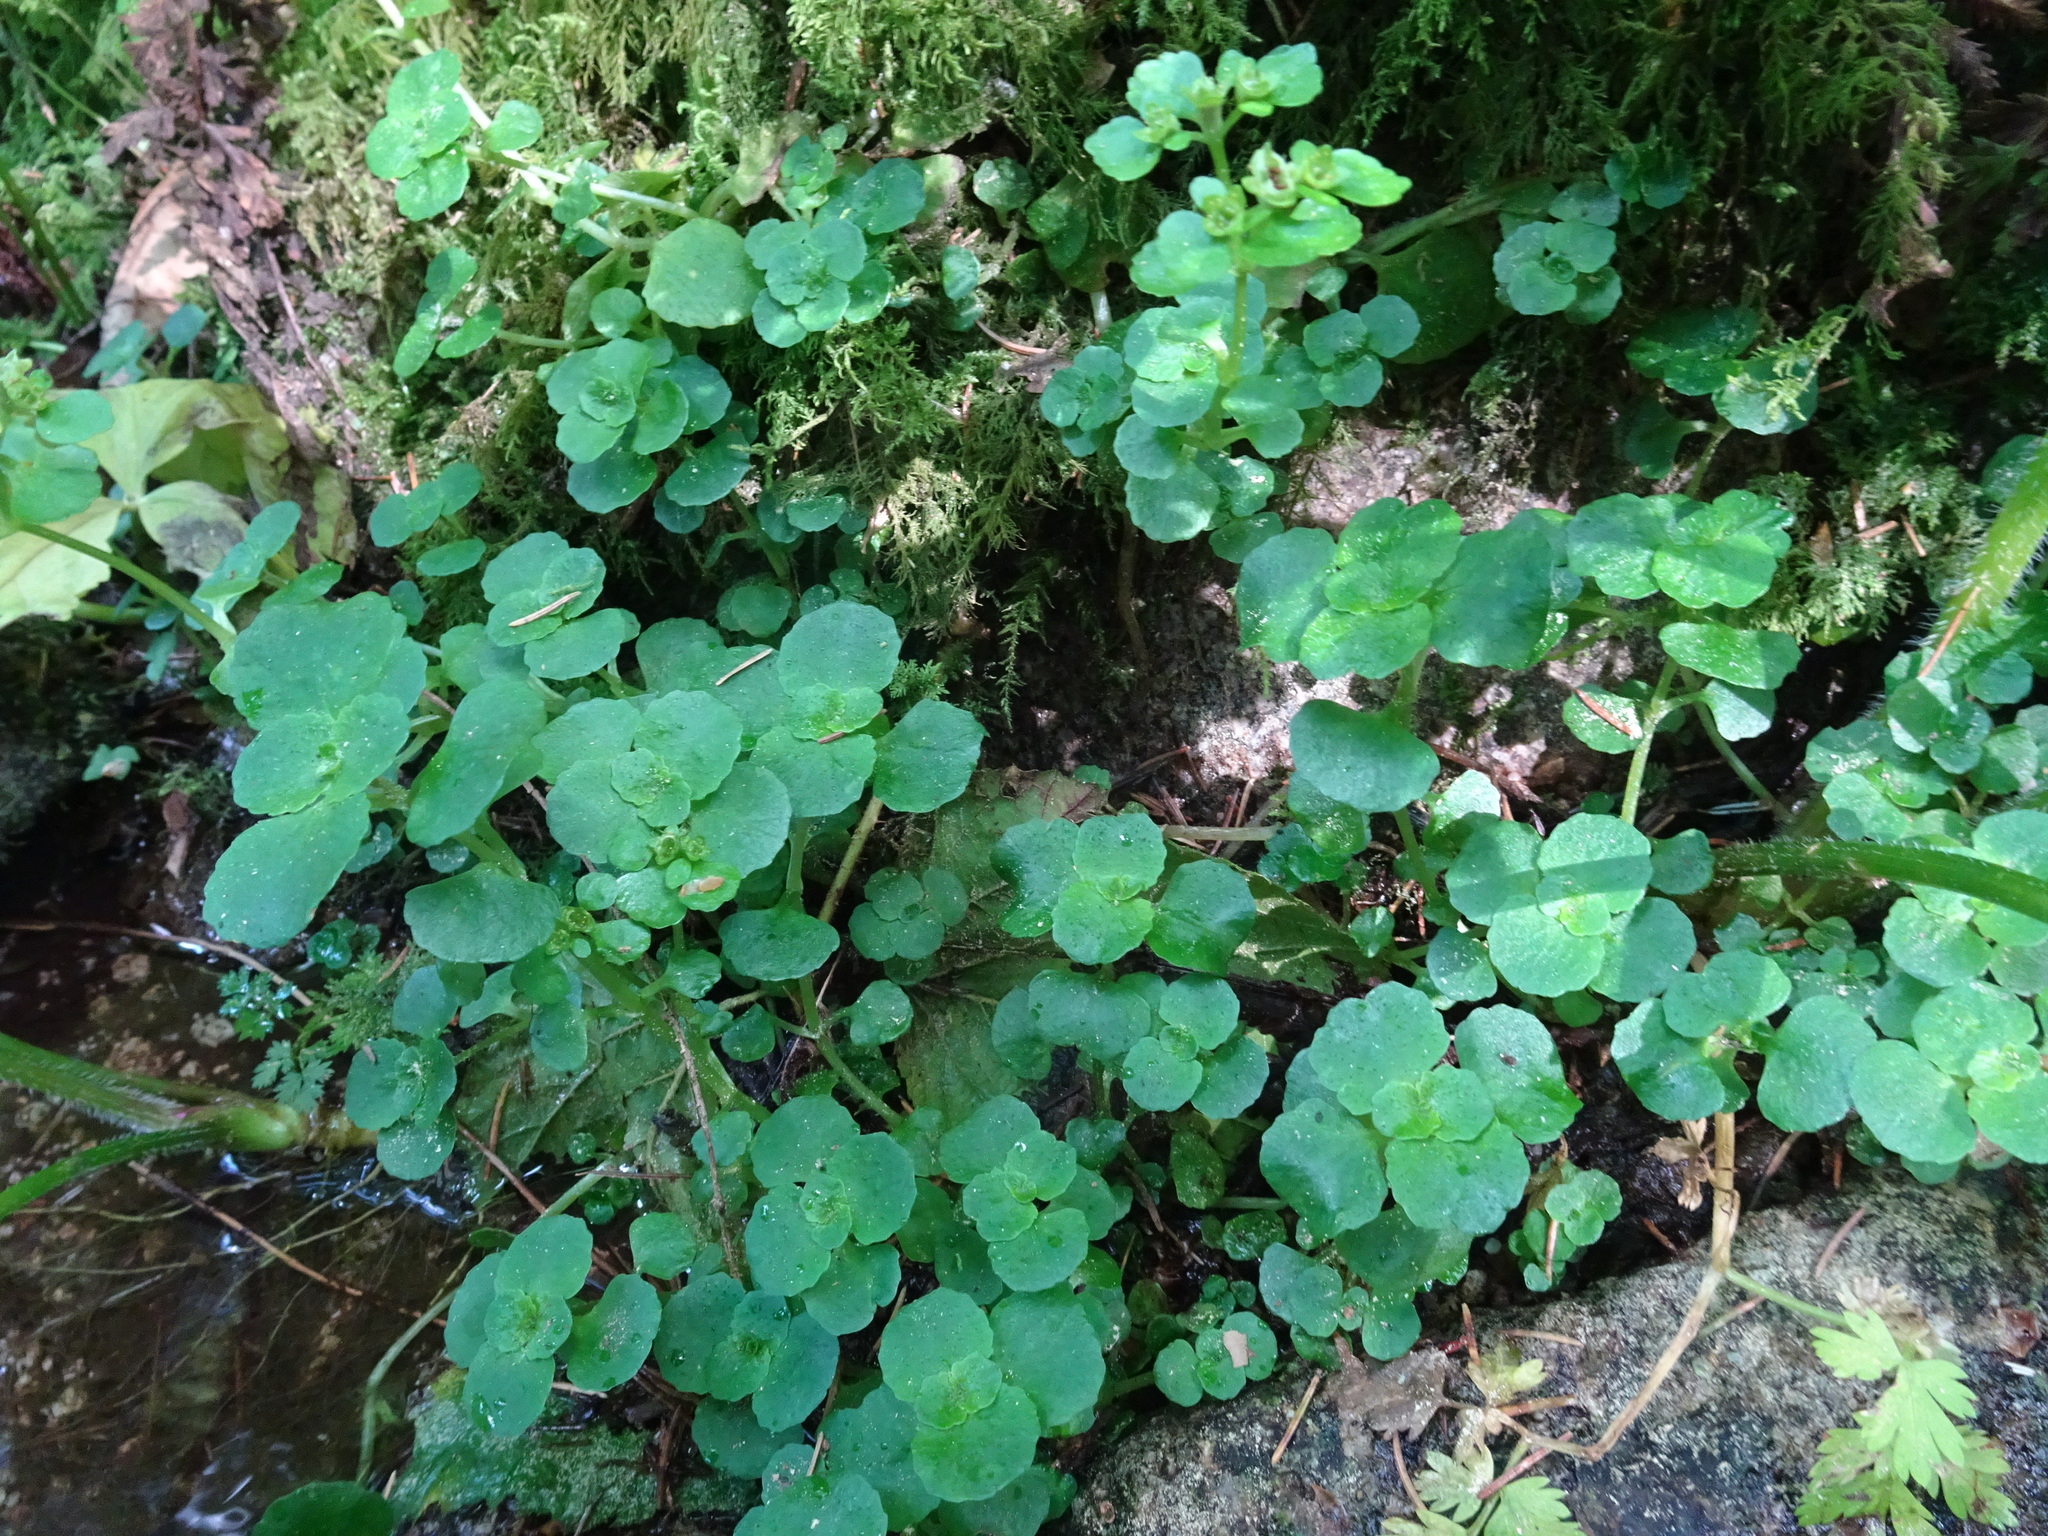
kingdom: Plantae
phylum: Tracheophyta
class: Magnoliopsida
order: Saxifragales
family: Saxifragaceae
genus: Chrysosplenium
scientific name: Chrysosplenium oppositifolium
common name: Opposite-leaved golden-saxifrage
